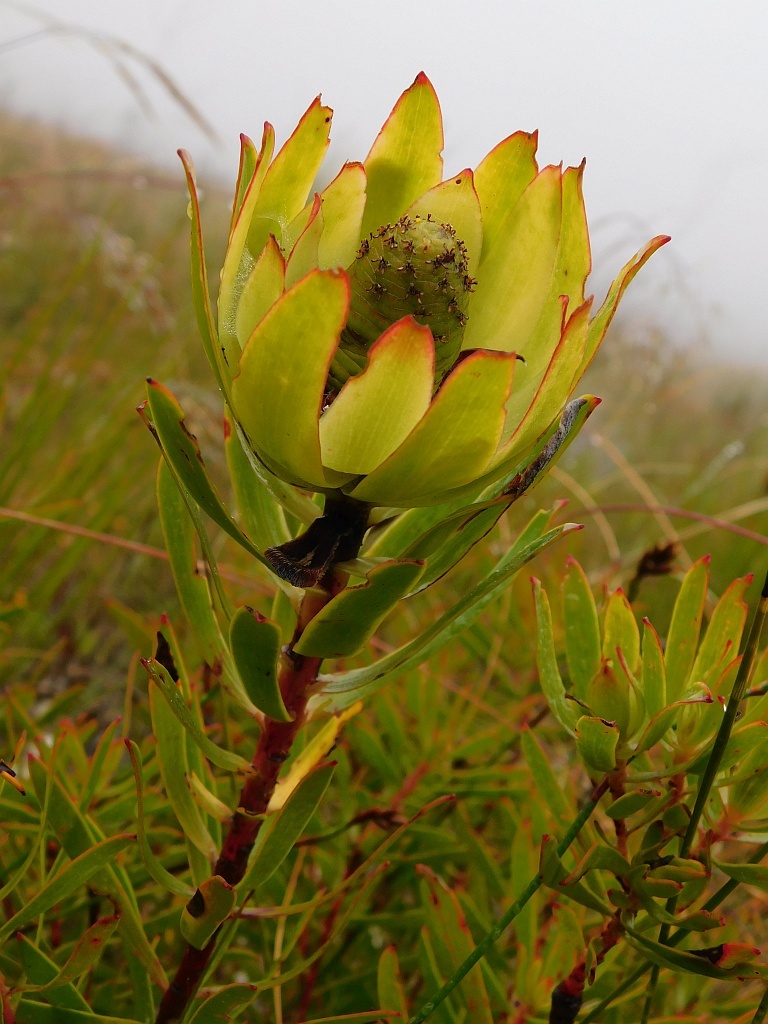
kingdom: Plantae
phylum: Tracheophyta
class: Magnoliopsida
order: Proteales
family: Proteaceae
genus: Leucadendron
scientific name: Leucadendron spissifolium
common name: Spear-leaf conebush
